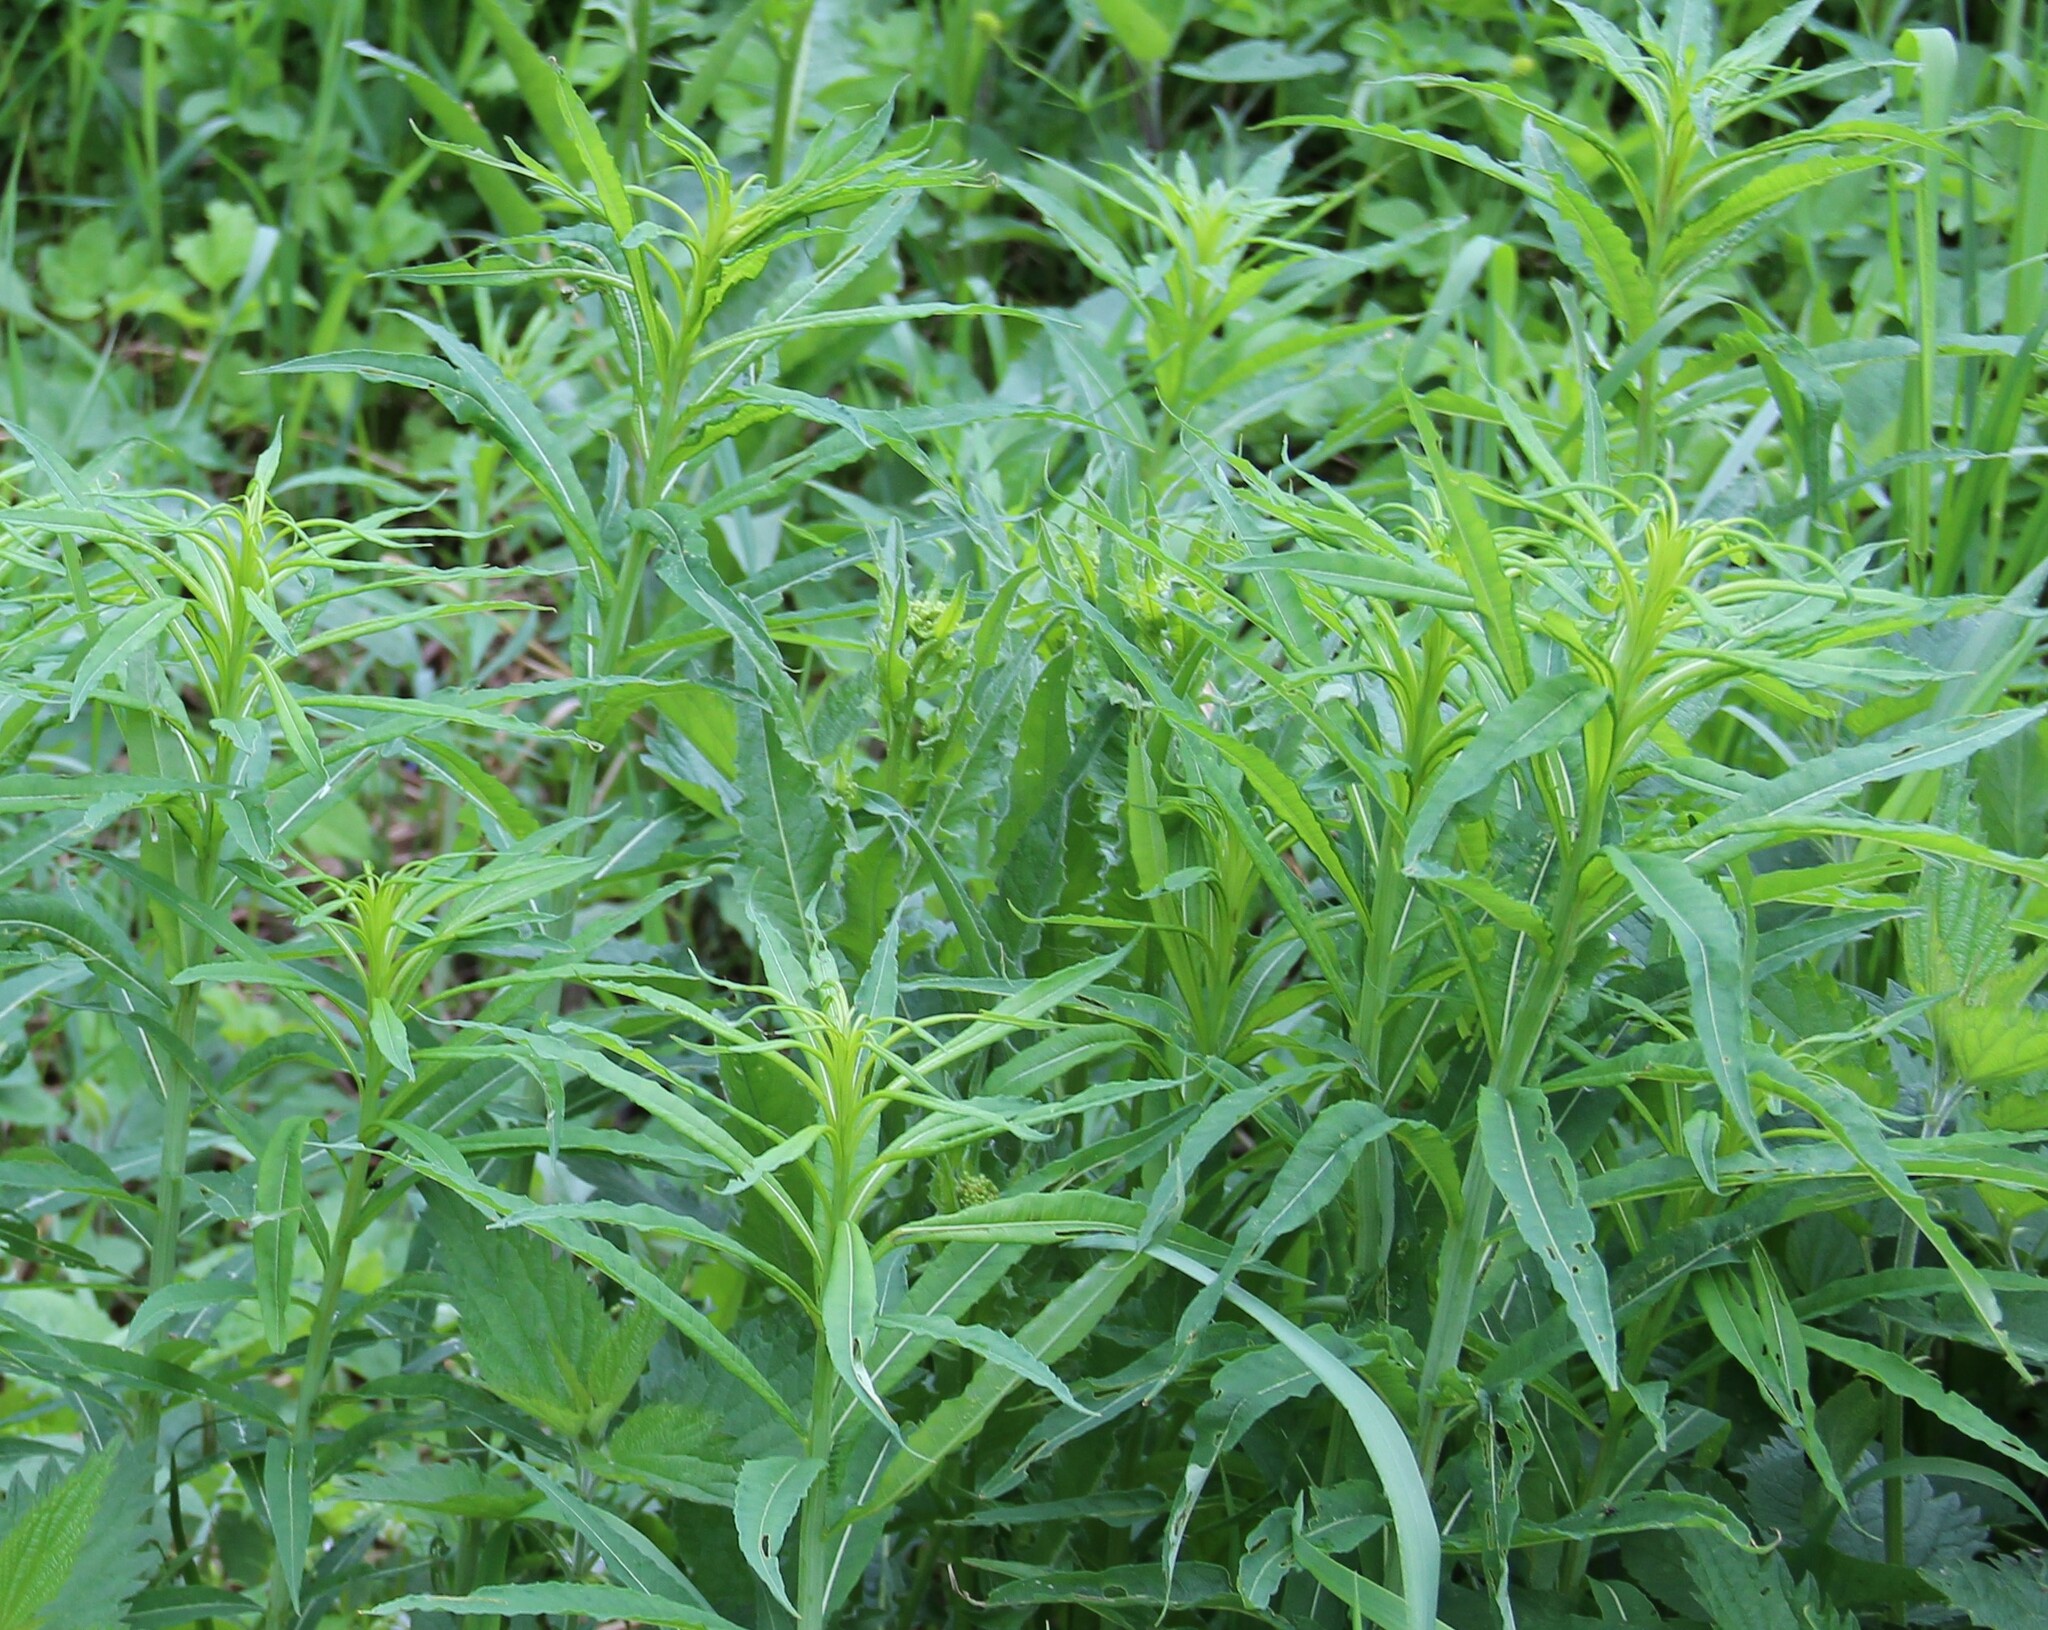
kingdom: Plantae
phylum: Tracheophyta
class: Magnoliopsida
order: Myrtales
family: Onagraceae
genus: Chamaenerion
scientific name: Chamaenerion angustifolium
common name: Fireweed
